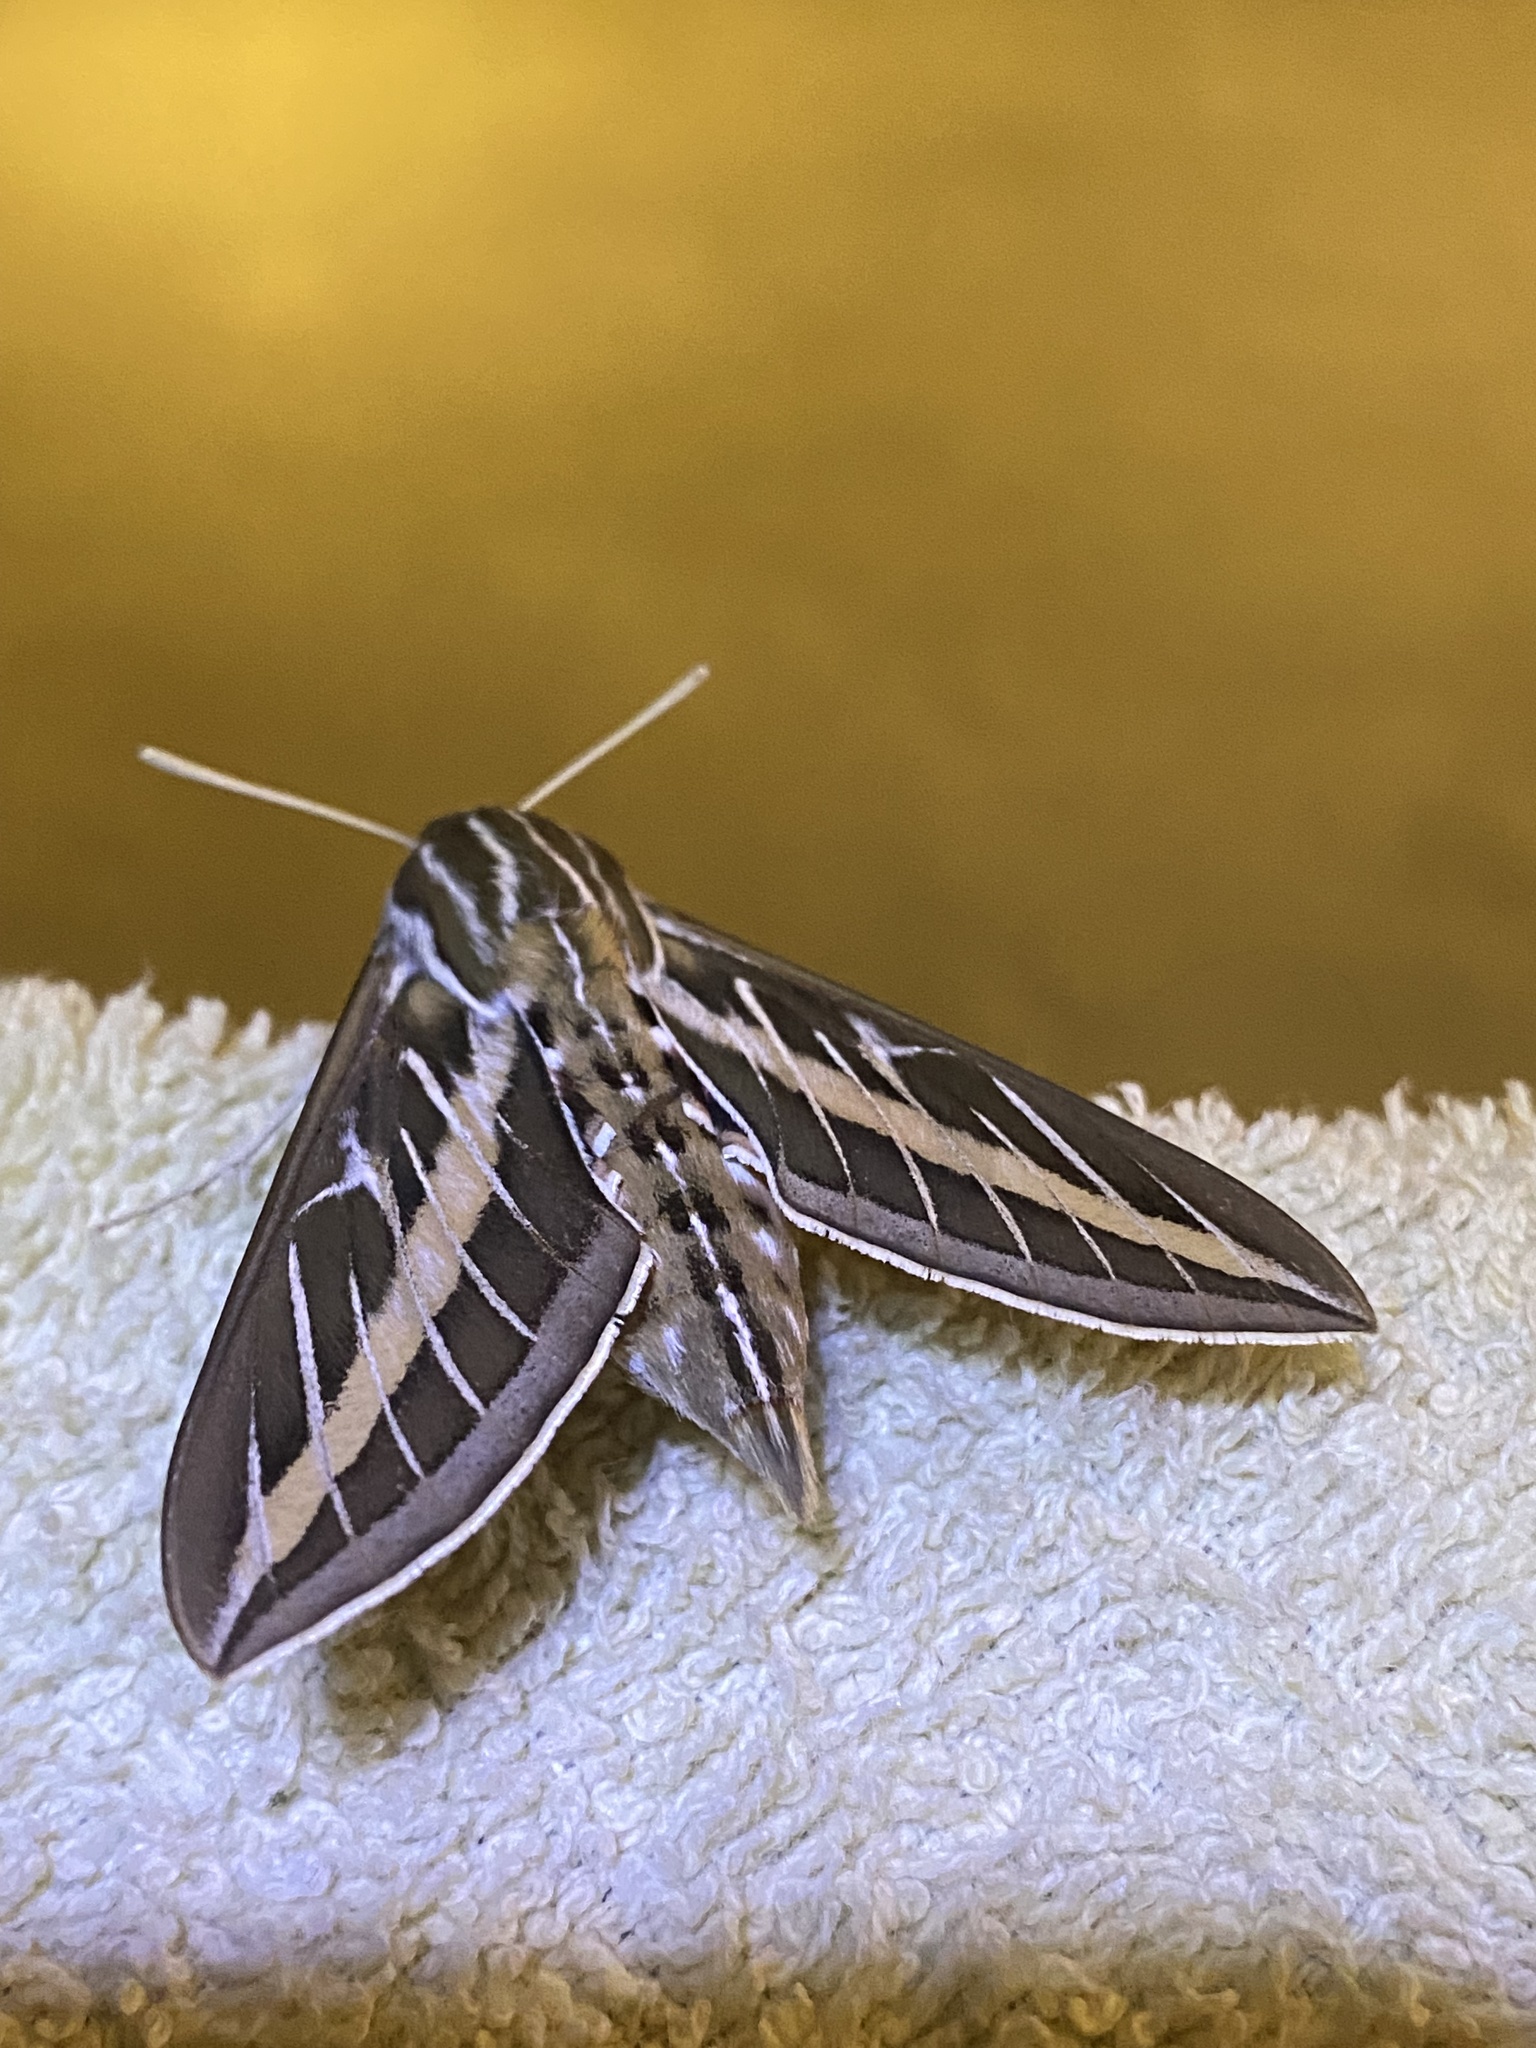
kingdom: Animalia
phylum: Arthropoda
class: Insecta
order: Lepidoptera
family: Sphingidae
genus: Hyles
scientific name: Hyles lineata
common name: White-lined sphinx
